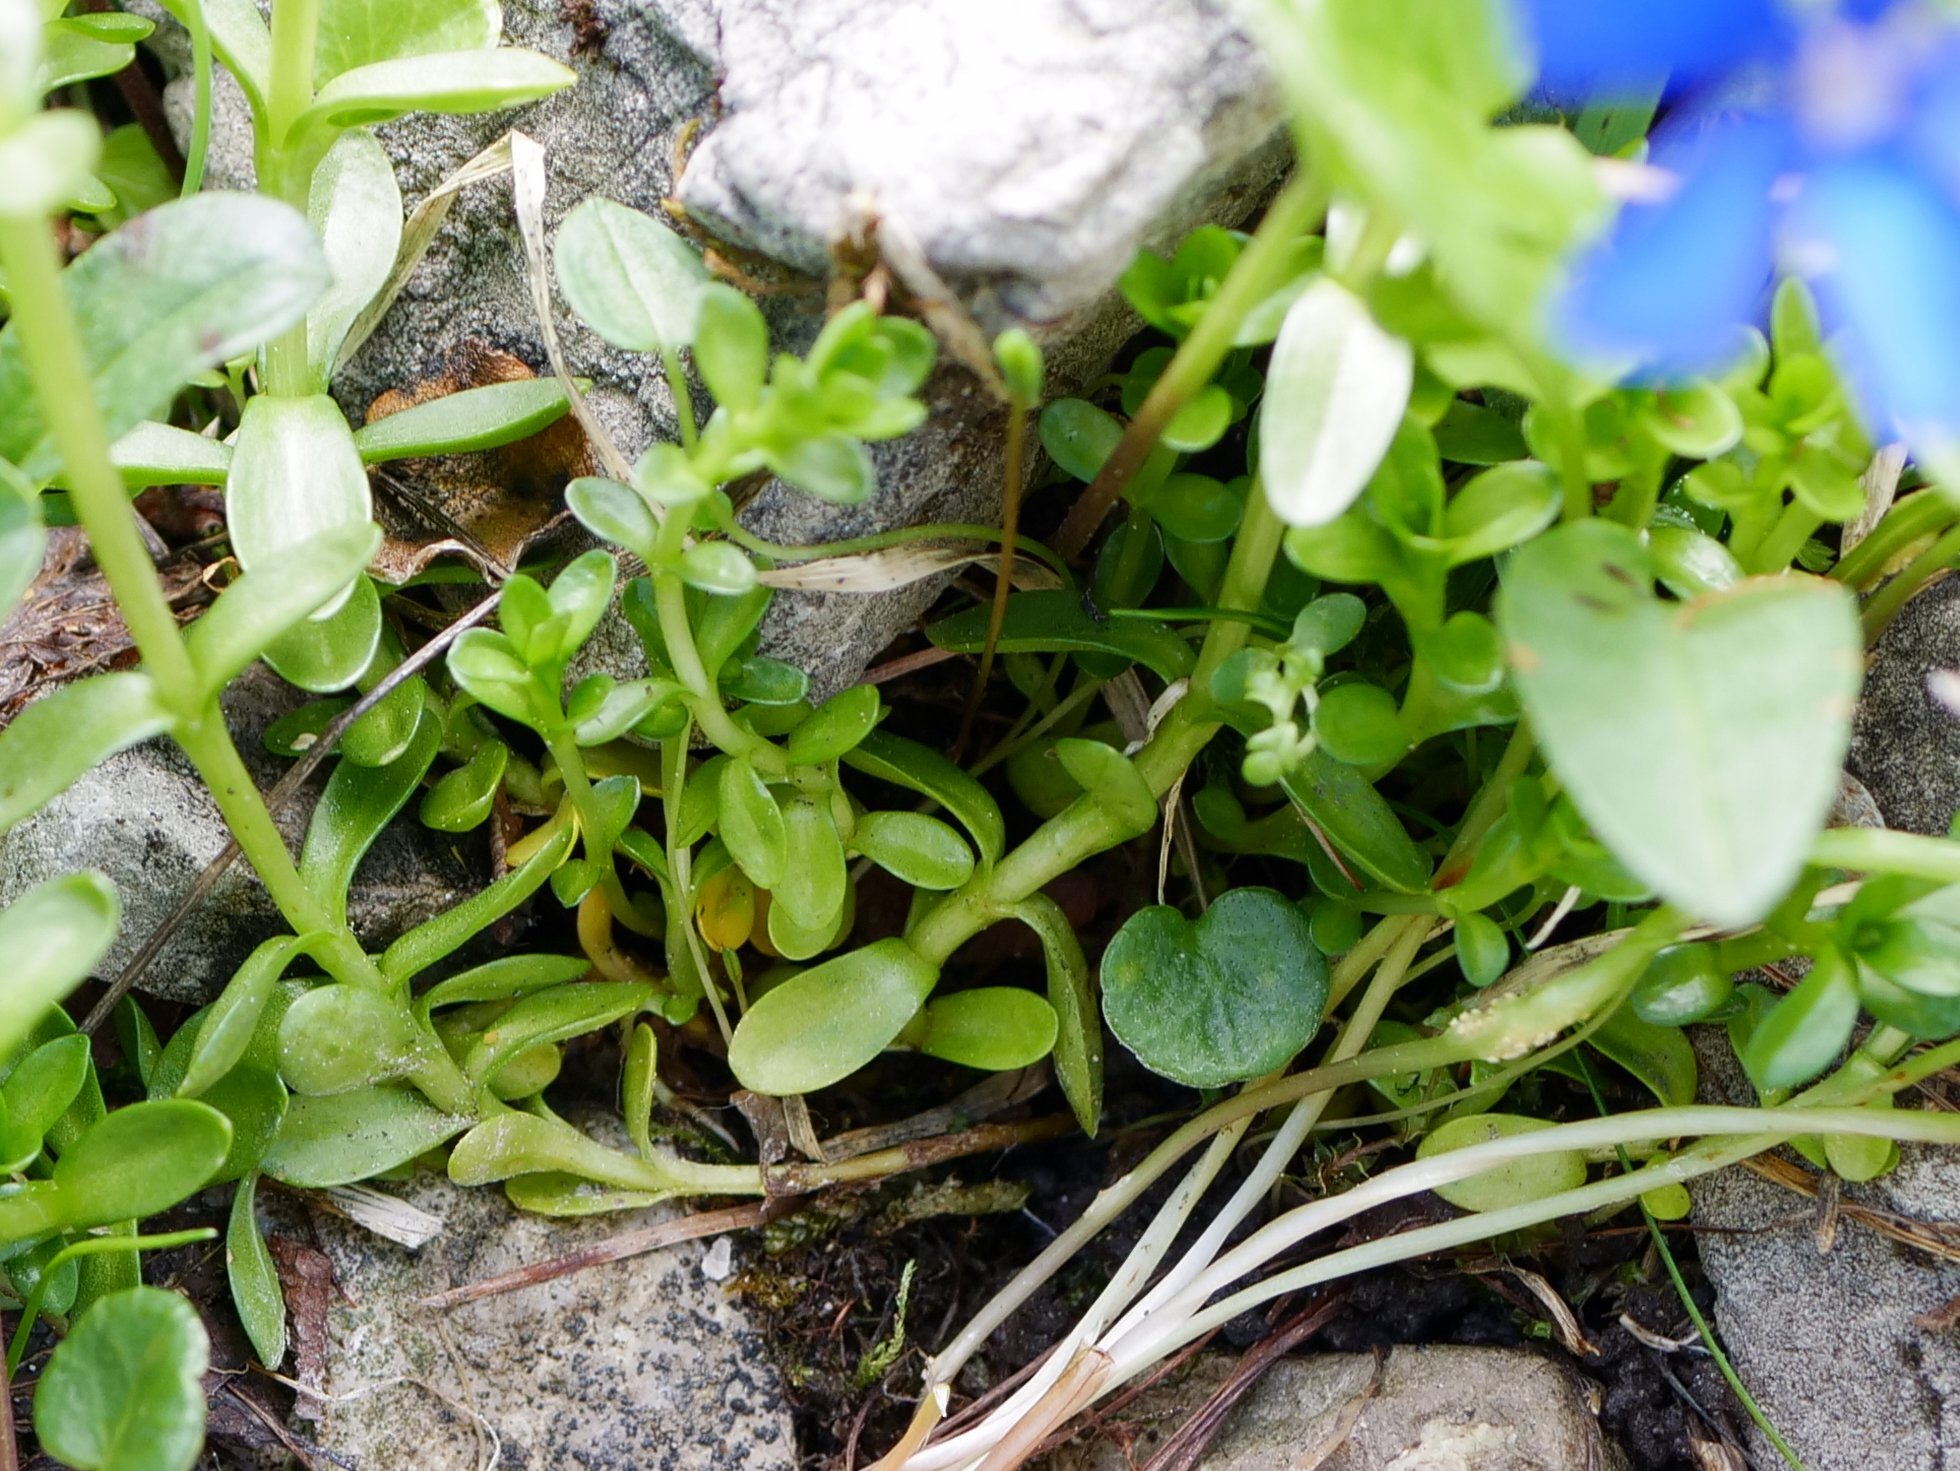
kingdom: Plantae
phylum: Tracheophyta
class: Magnoliopsida
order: Gentianales
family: Gentianaceae
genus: Gentiana
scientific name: Gentiana bavarica
